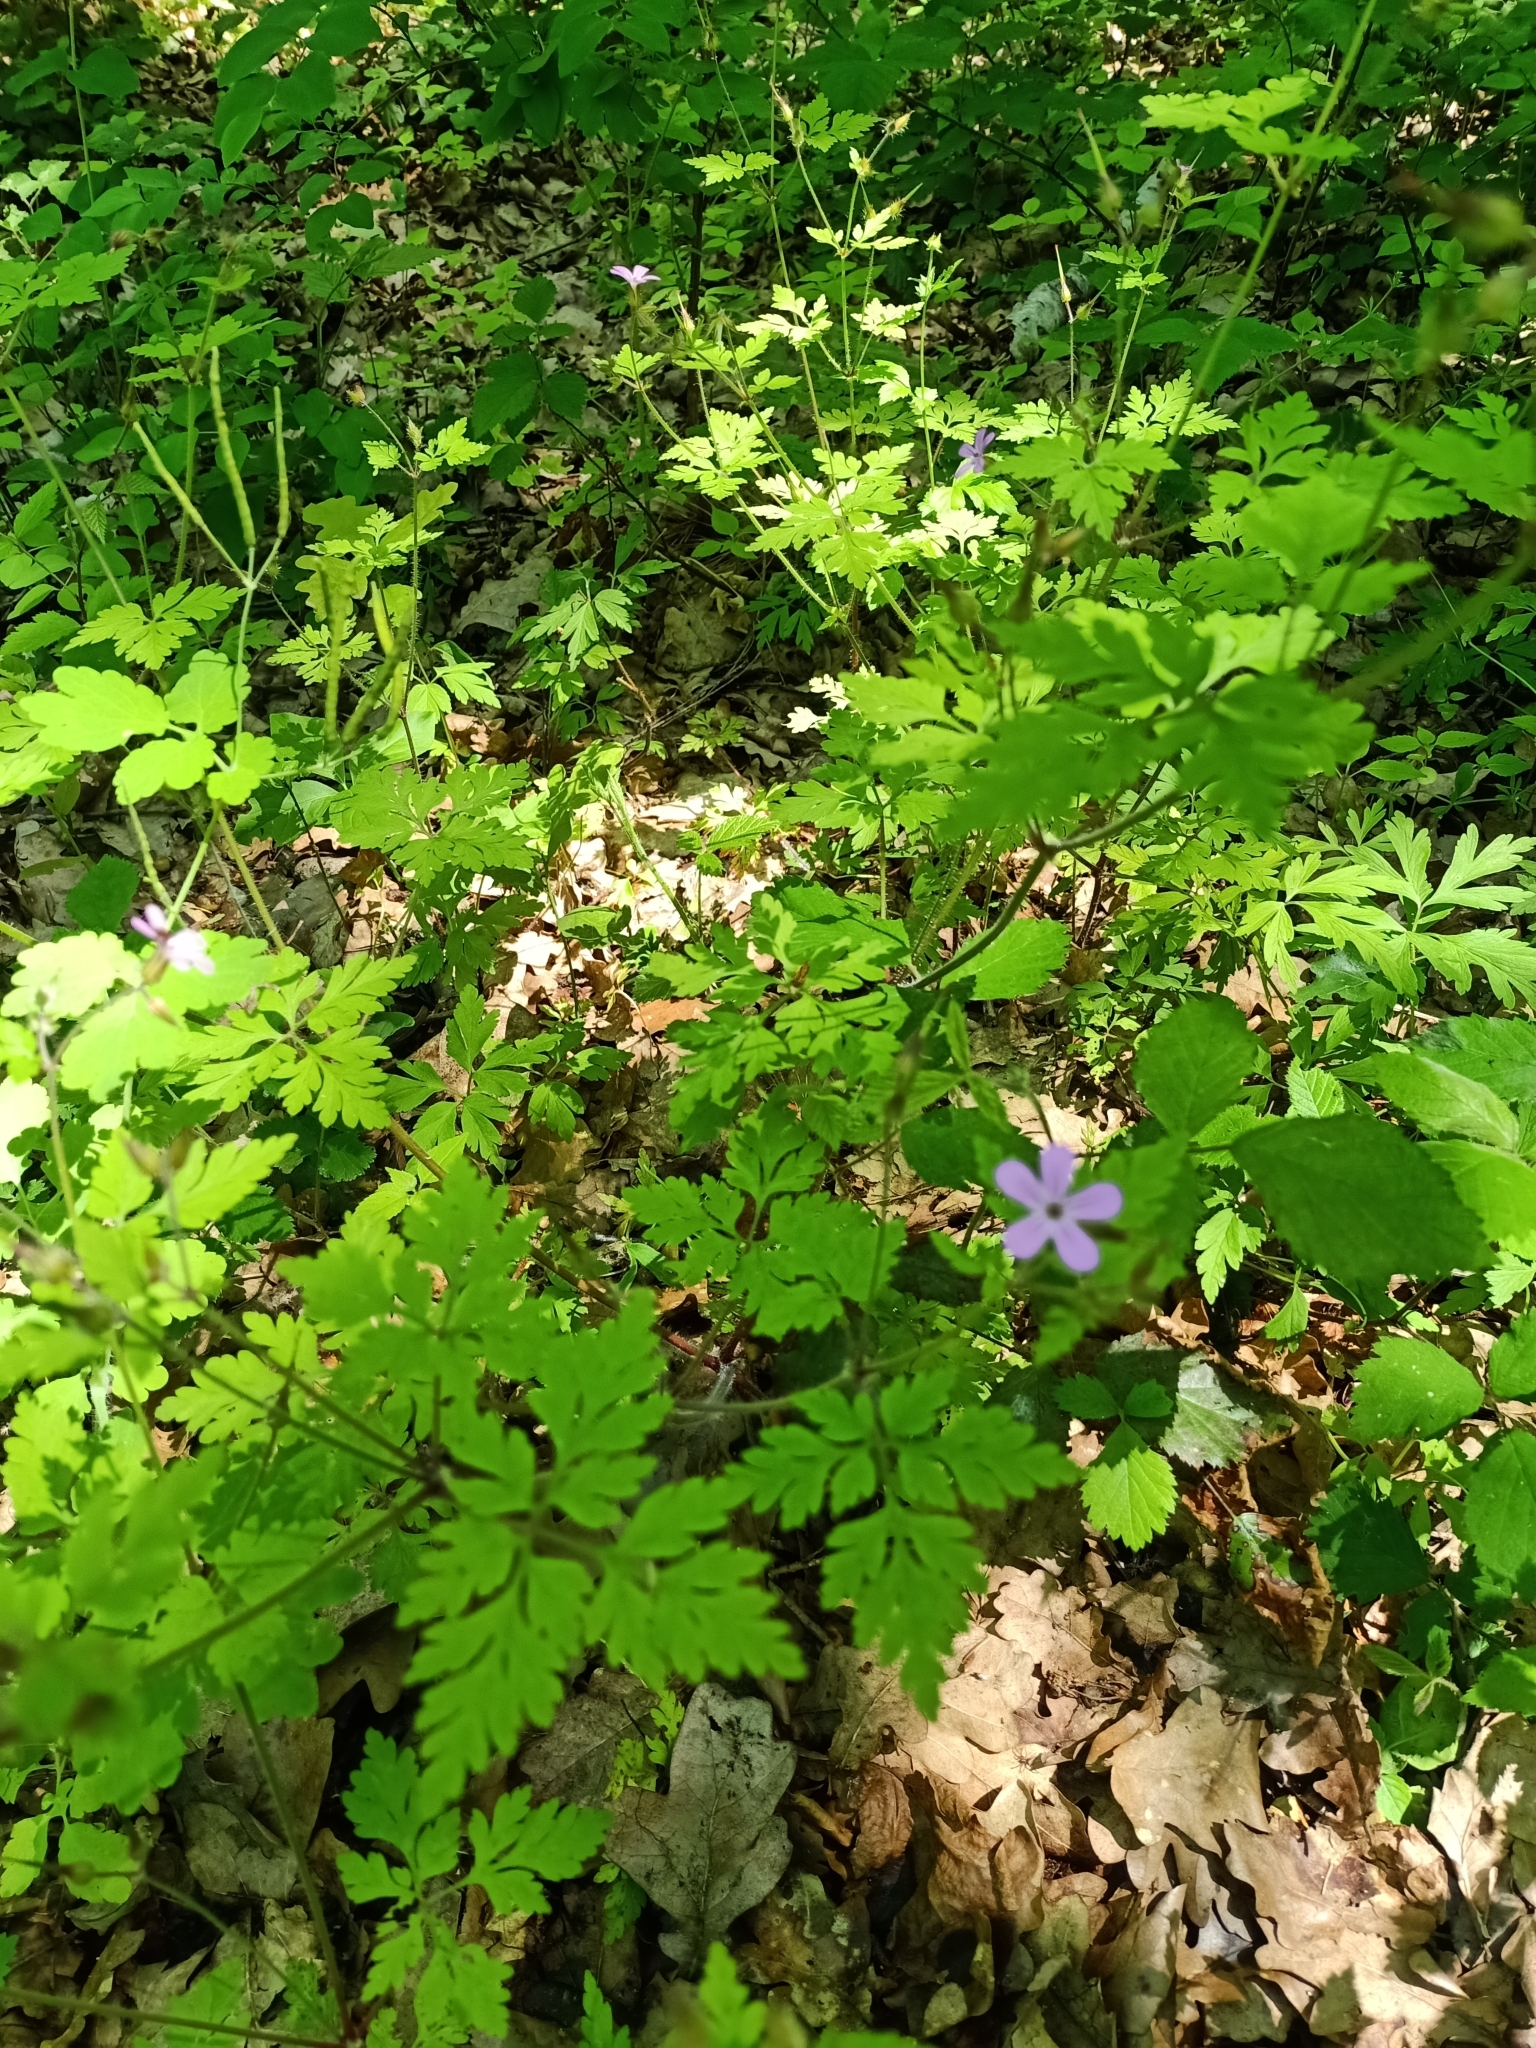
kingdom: Plantae
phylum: Tracheophyta
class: Magnoliopsida
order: Geraniales
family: Geraniaceae
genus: Geranium
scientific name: Geranium robertianum
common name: Herb-robert
